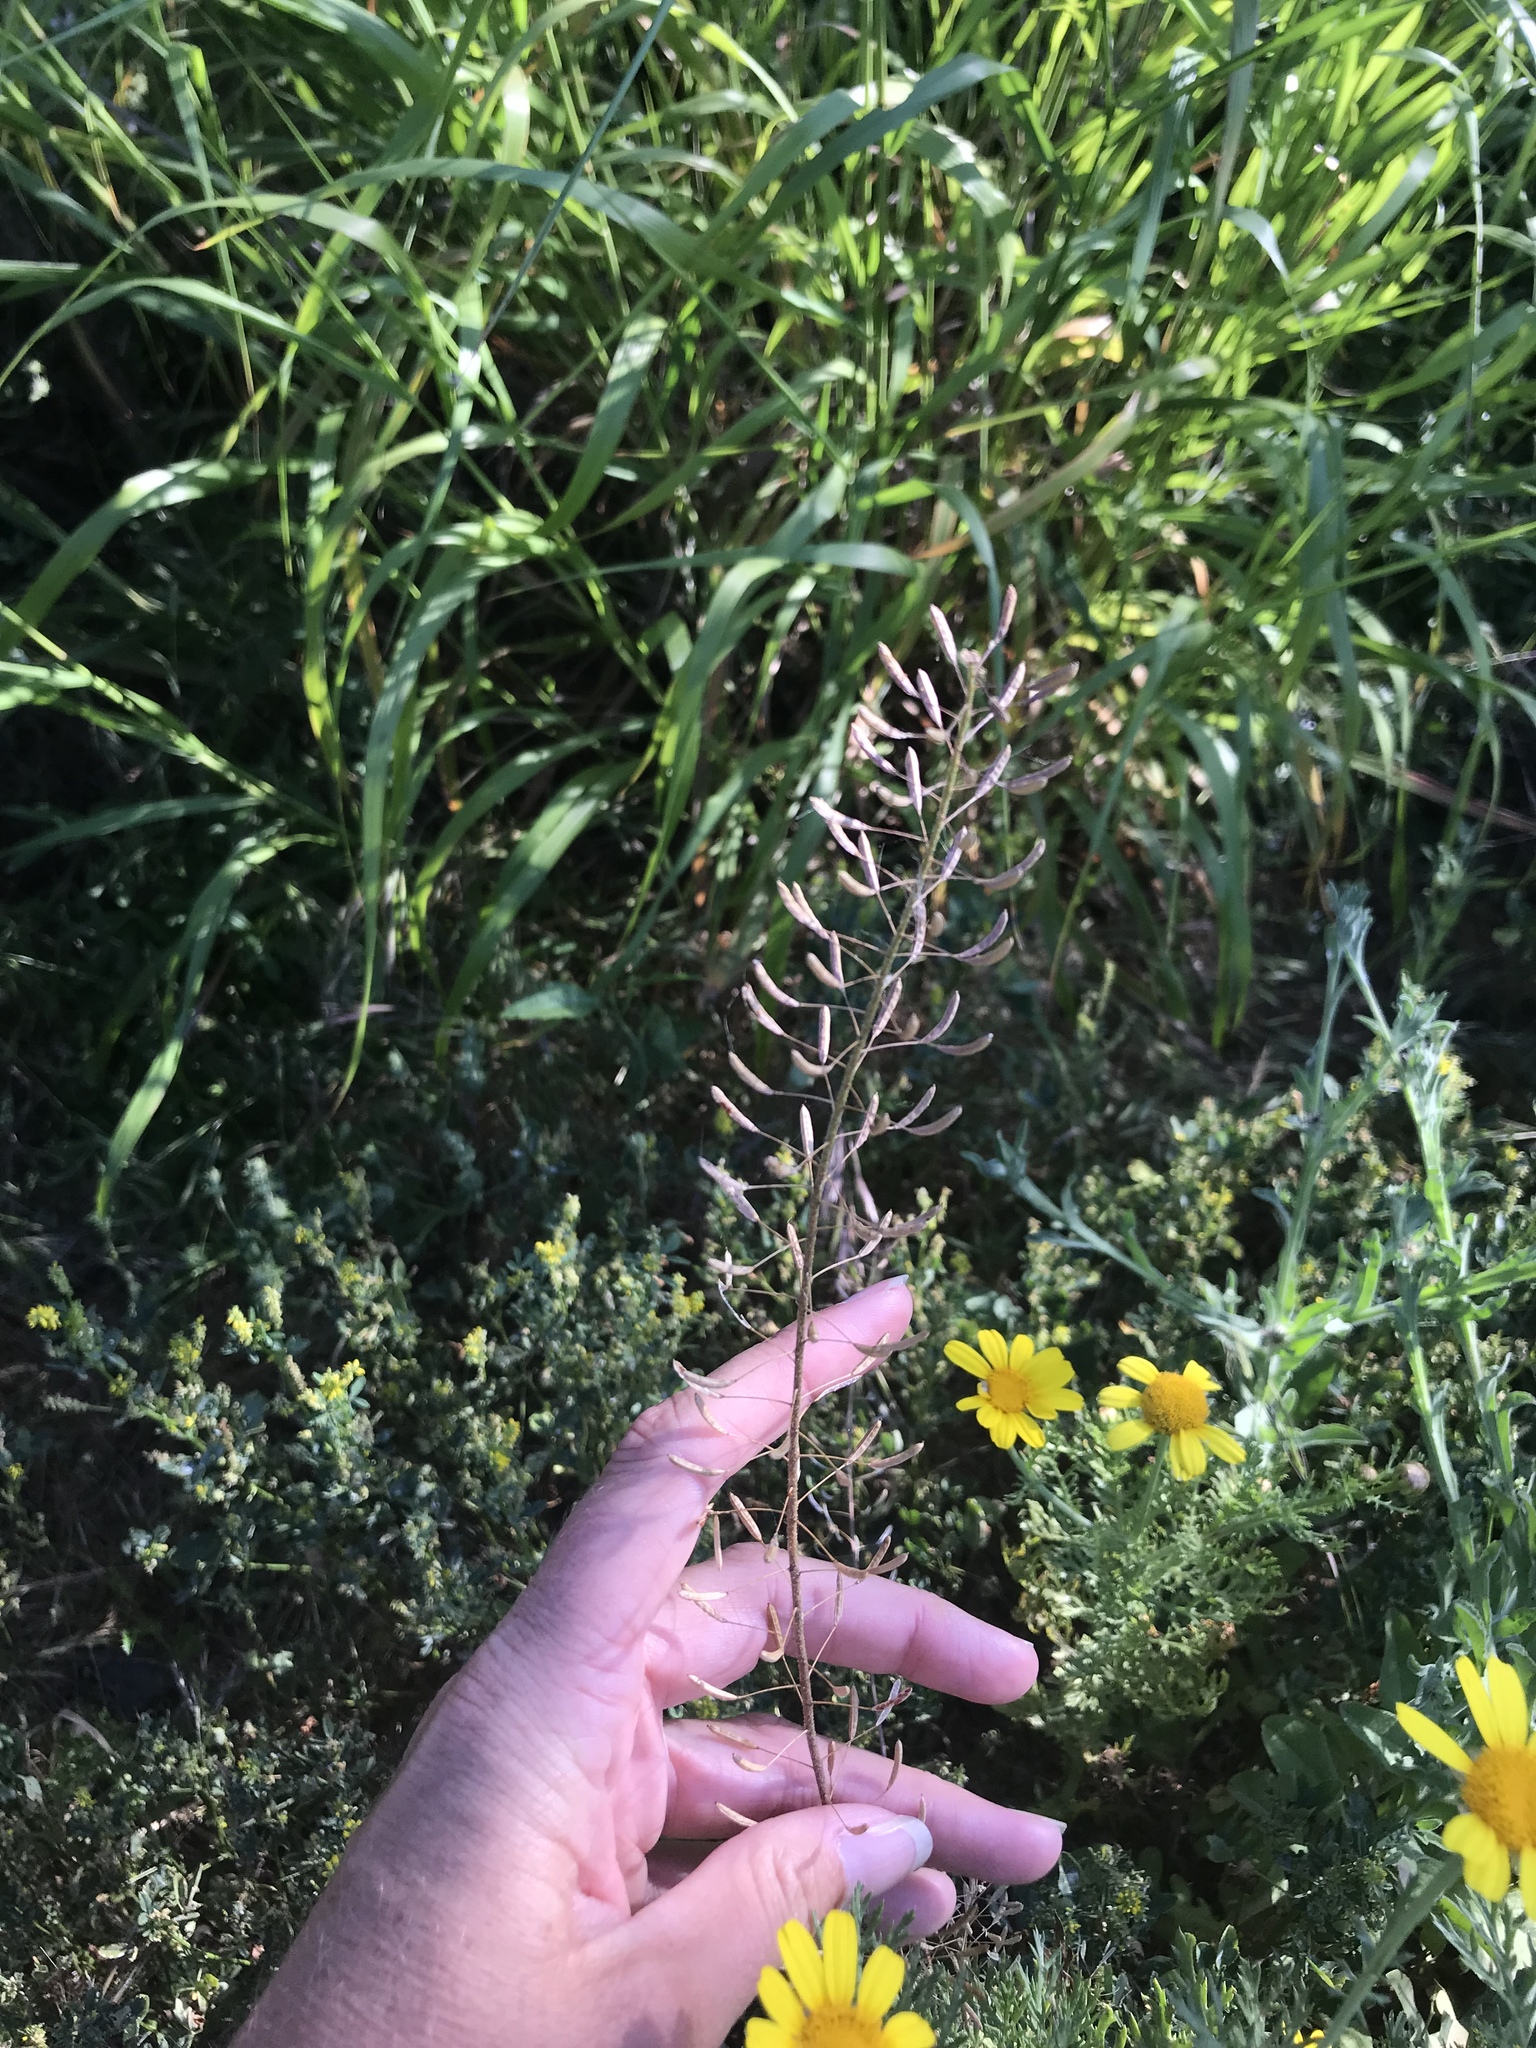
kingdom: Plantae
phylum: Tracheophyta
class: Magnoliopsida
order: Brassicales
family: Brassicaceae
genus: Descurainia
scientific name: Descurainia pinnata
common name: Western tansy mustard
